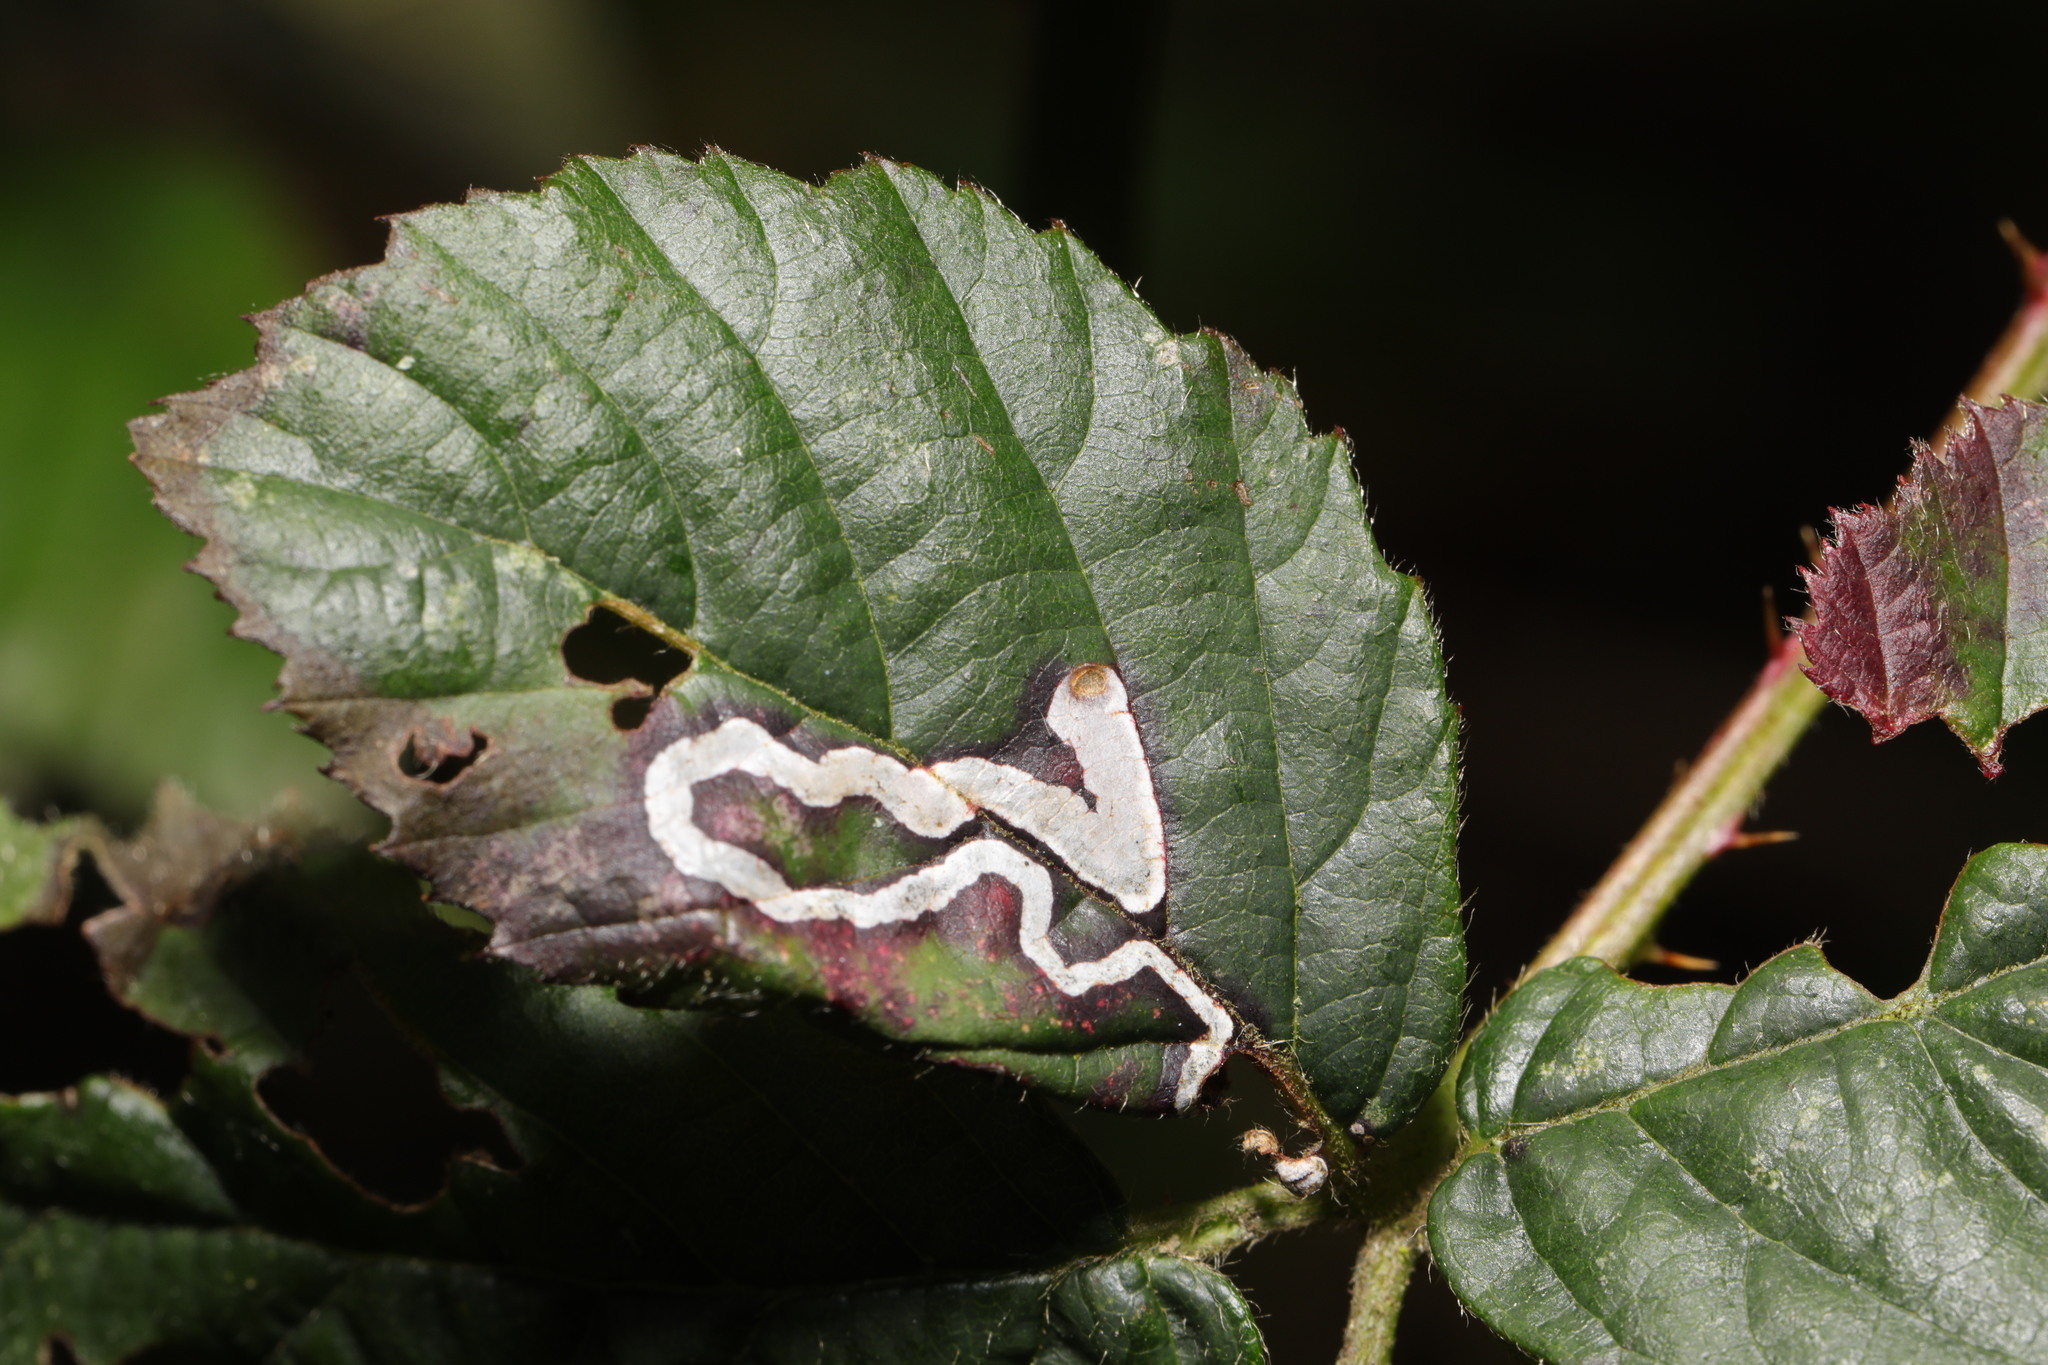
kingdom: Animalia
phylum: Arthropoda
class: Insecta
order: Lepidoptera
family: Nepticulidae
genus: Stigmella
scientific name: Stigmella aurella
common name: Golden pigmy
